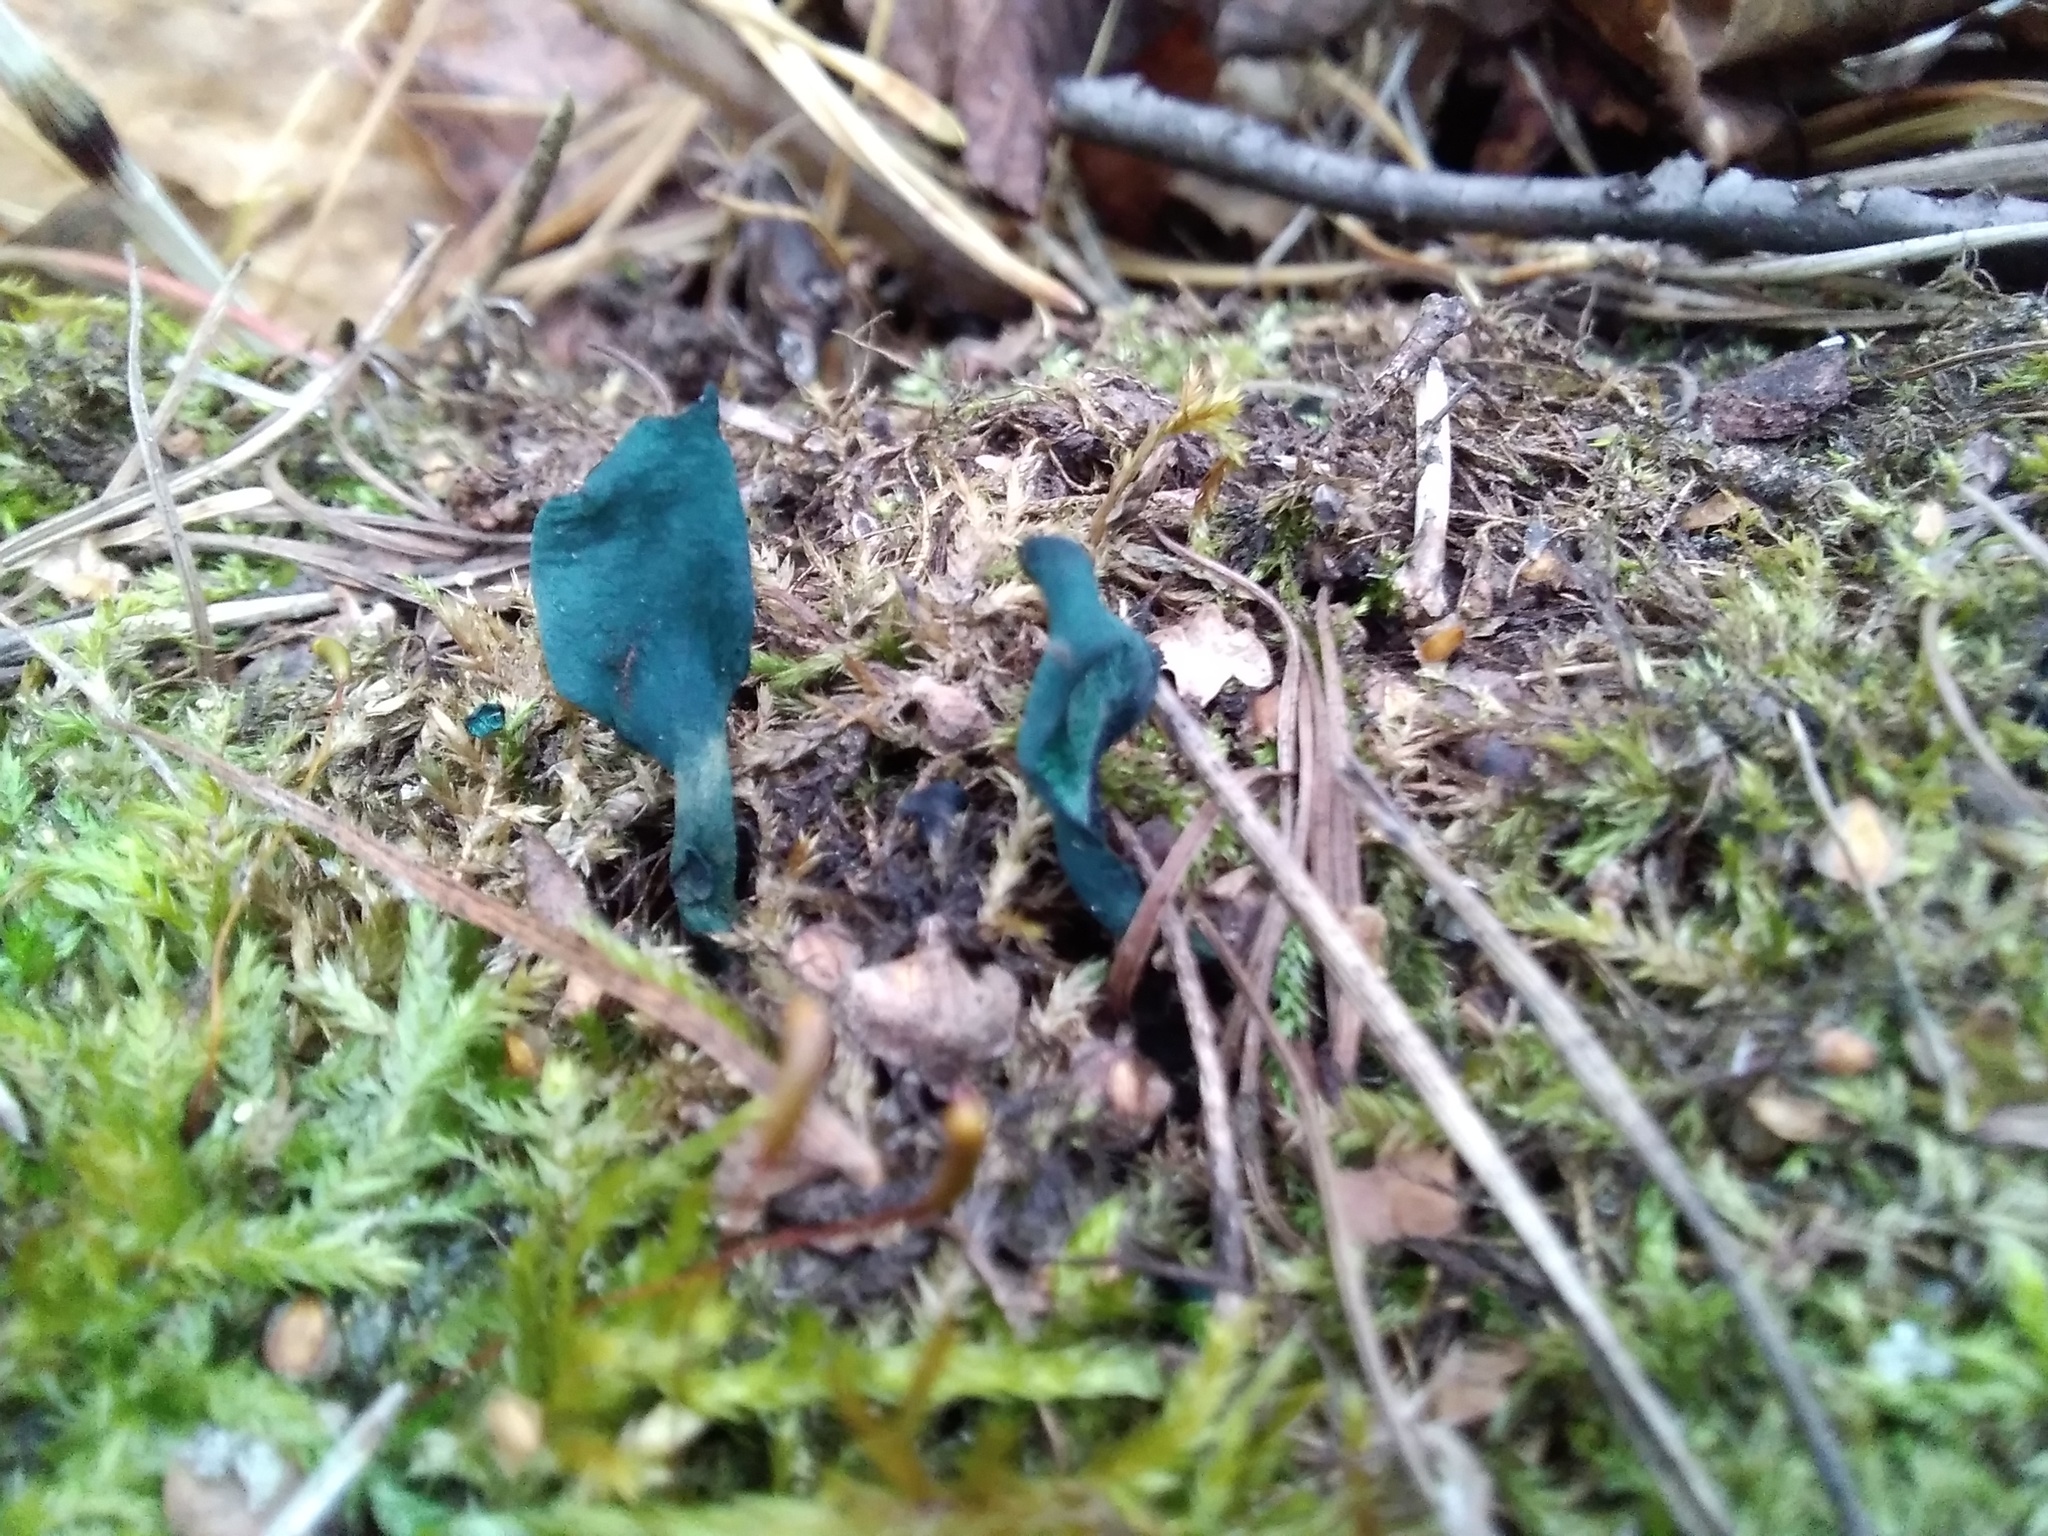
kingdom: Fungi
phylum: Ascomycota
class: Leotiomycetes
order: Helotiales
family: Chlorociboriaceae
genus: Chlorociboria
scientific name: Chlorociboria aeruginascens
